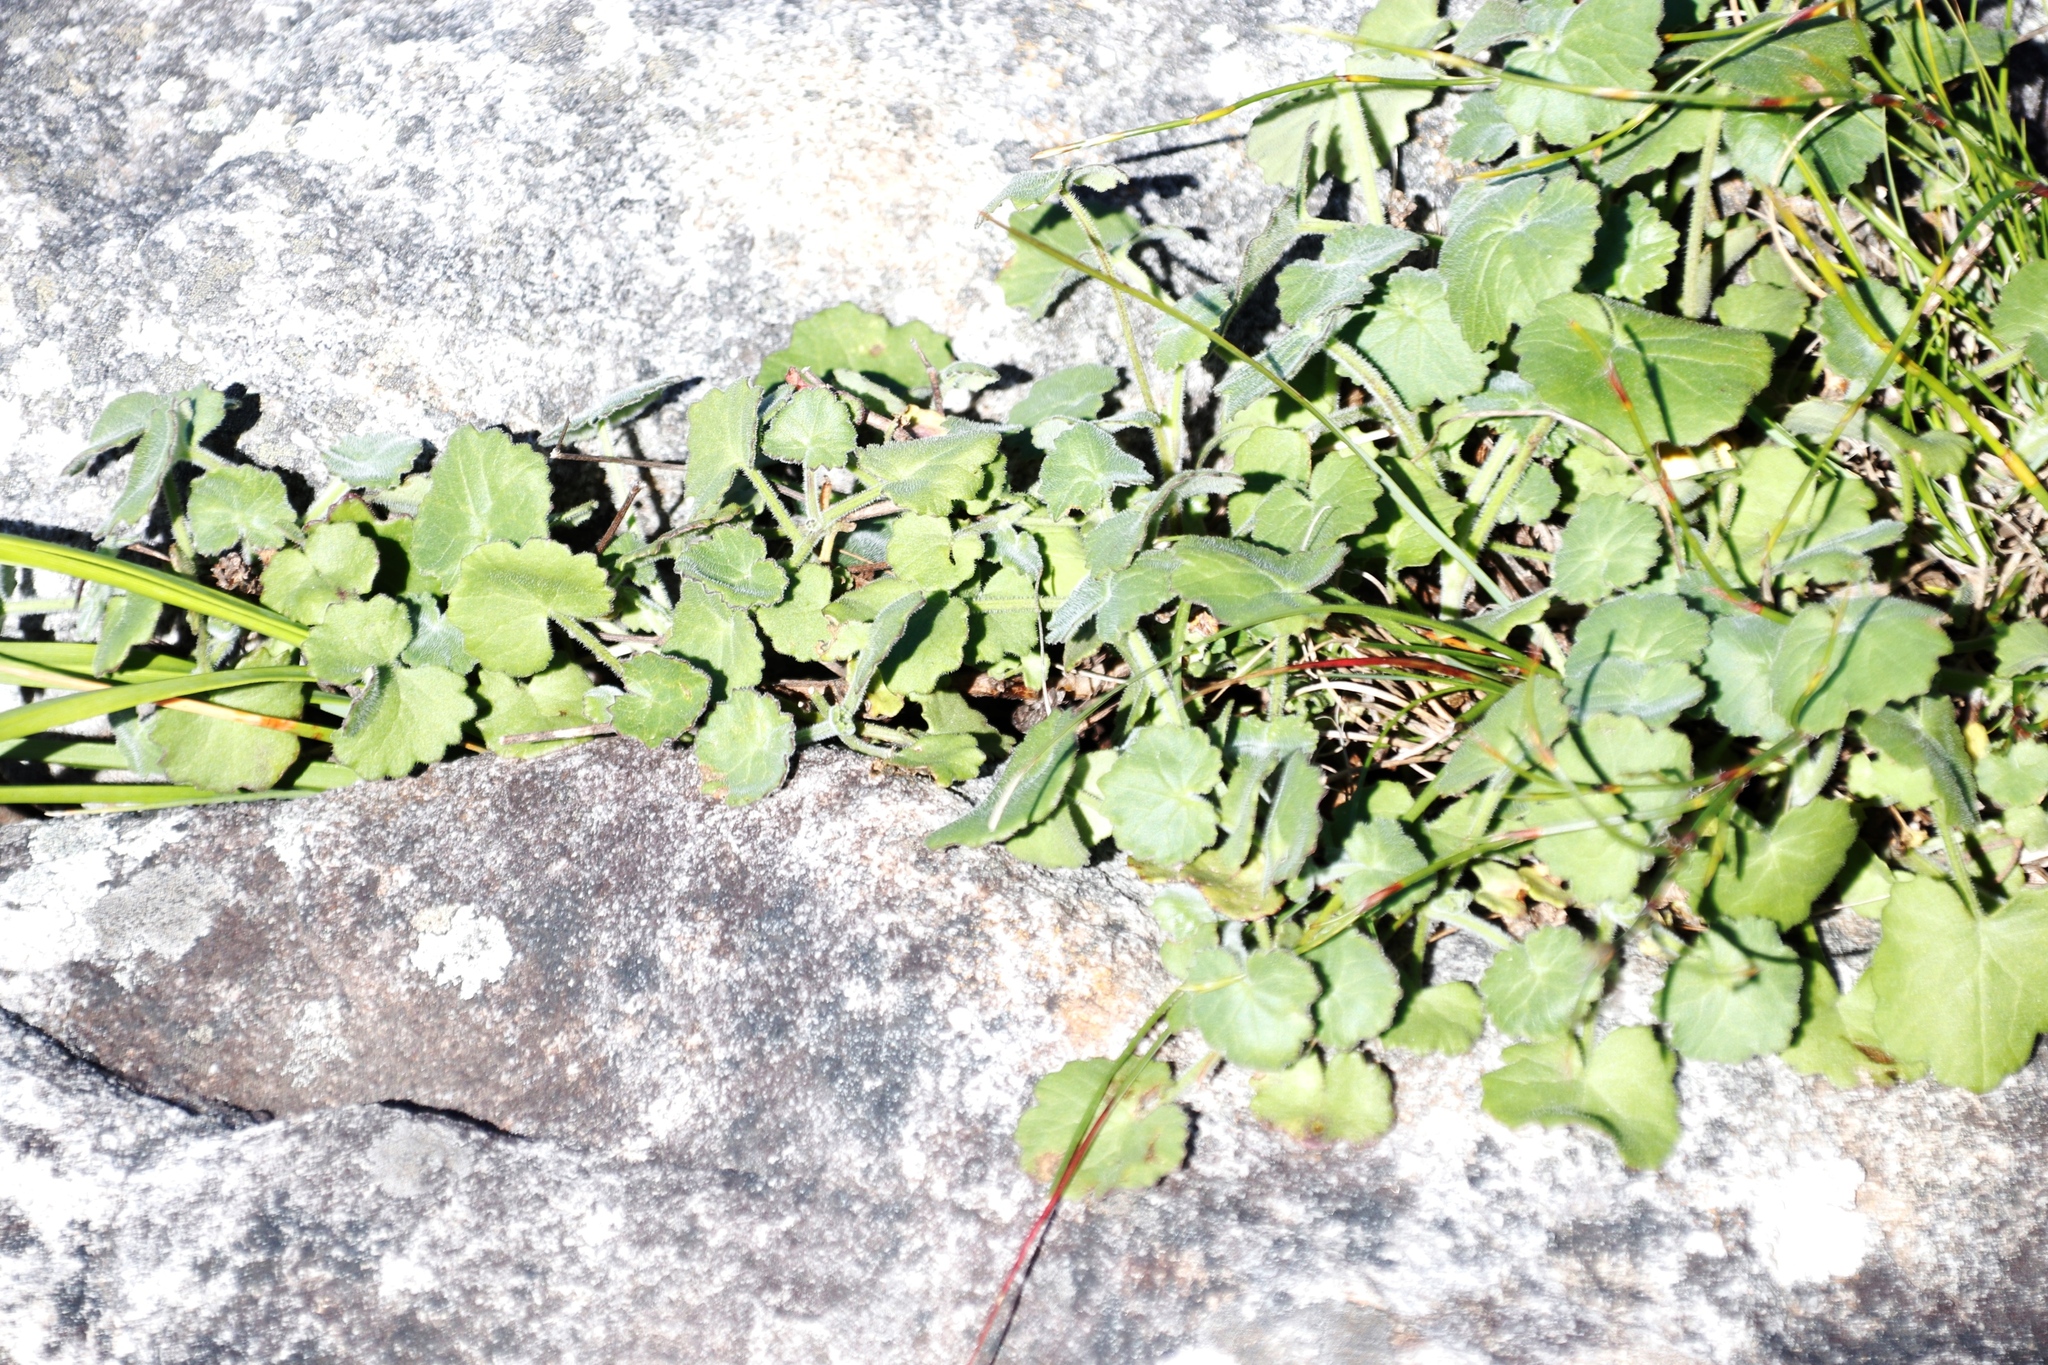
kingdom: Plantae
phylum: Tracheophyta
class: Magnoliopsida
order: Asterales
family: Asteraceae
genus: Cineraria
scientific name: Cineraria geifolia
